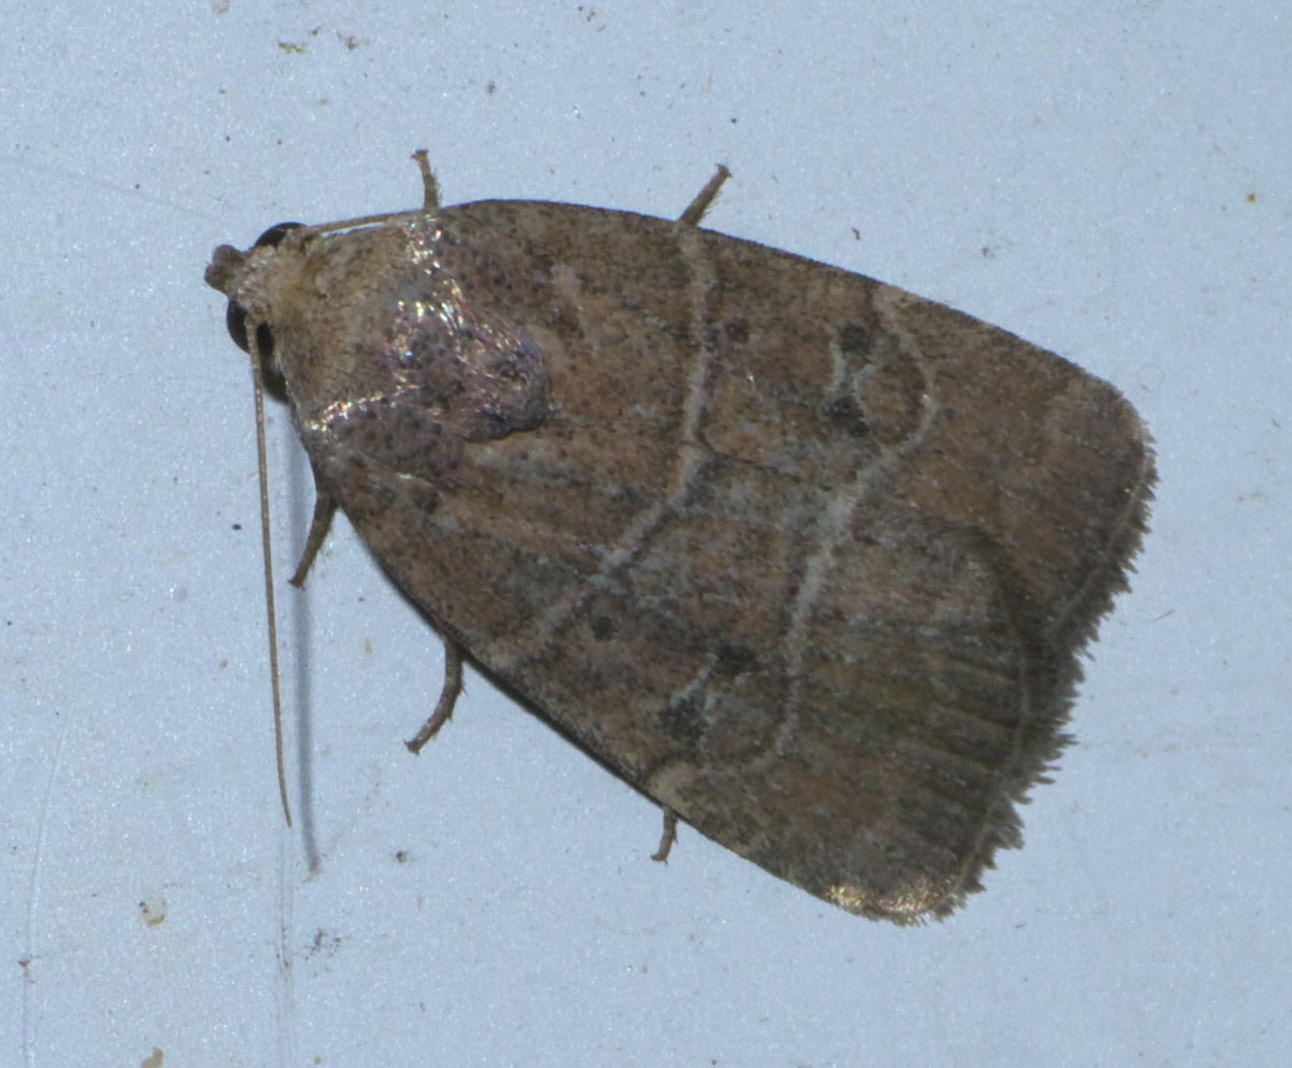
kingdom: Animalia
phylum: Arthropoda
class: Insecta
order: Lepidoptera
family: Noctuidae
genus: Elaphria
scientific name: Elaphria grata
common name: Grateful midget moth
